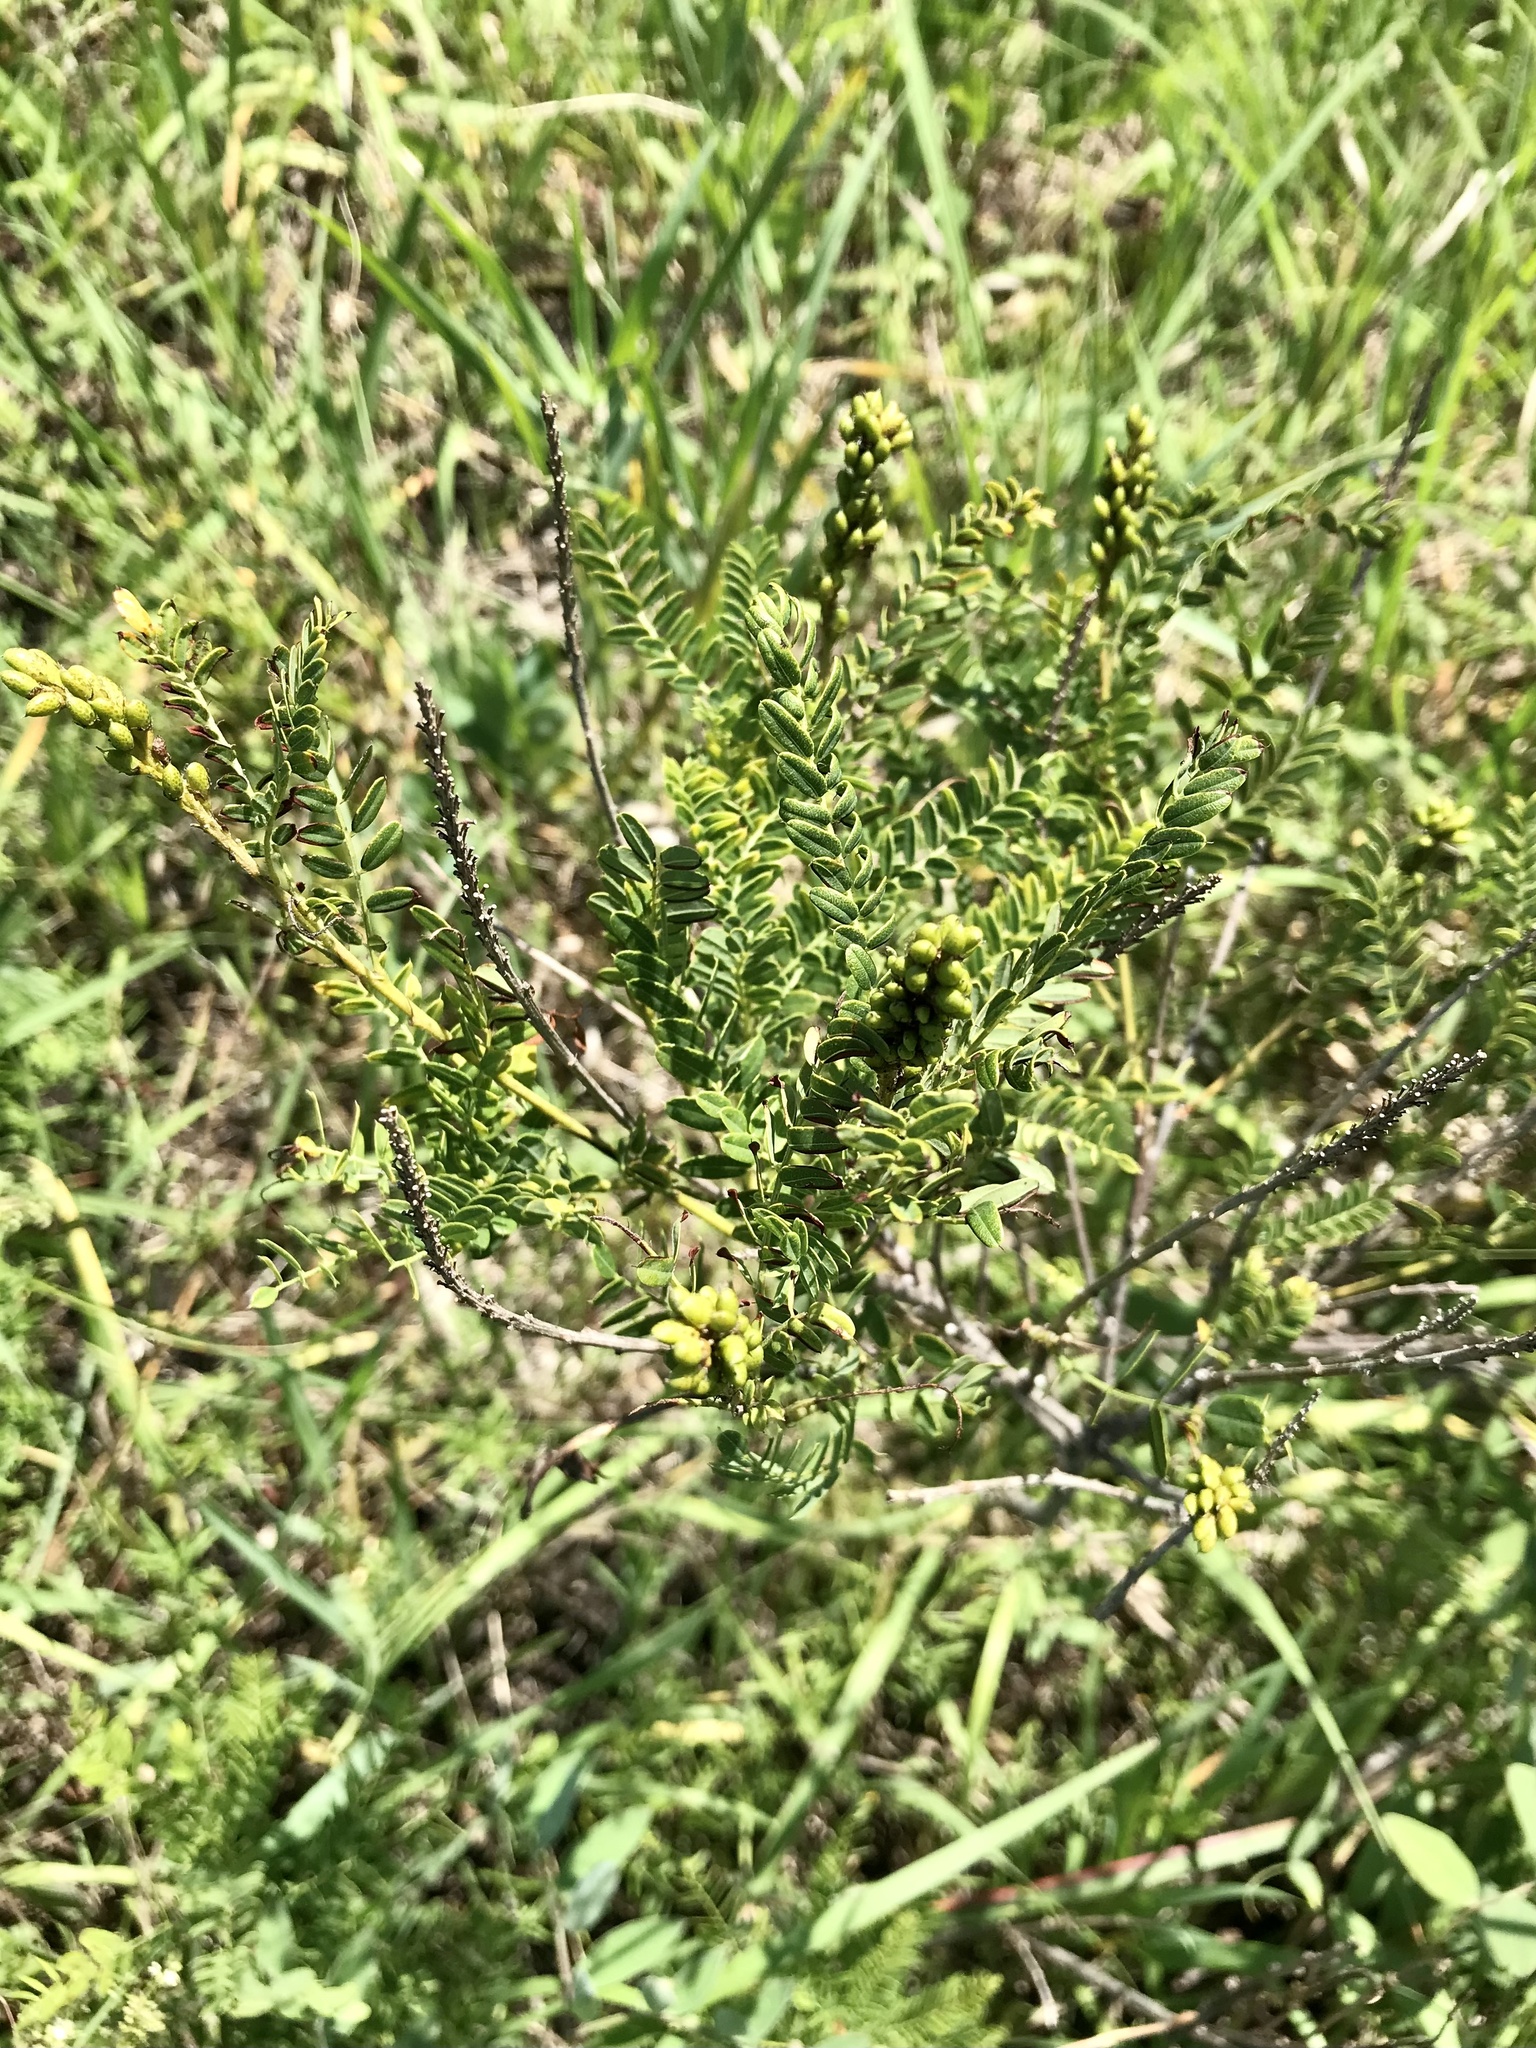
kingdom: Plantae
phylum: Tracheophyta
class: Magnoliopsida
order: Fabales
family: Fabaceae
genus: Amorpha
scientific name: Amorpha nana
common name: Fragrant false indigo
